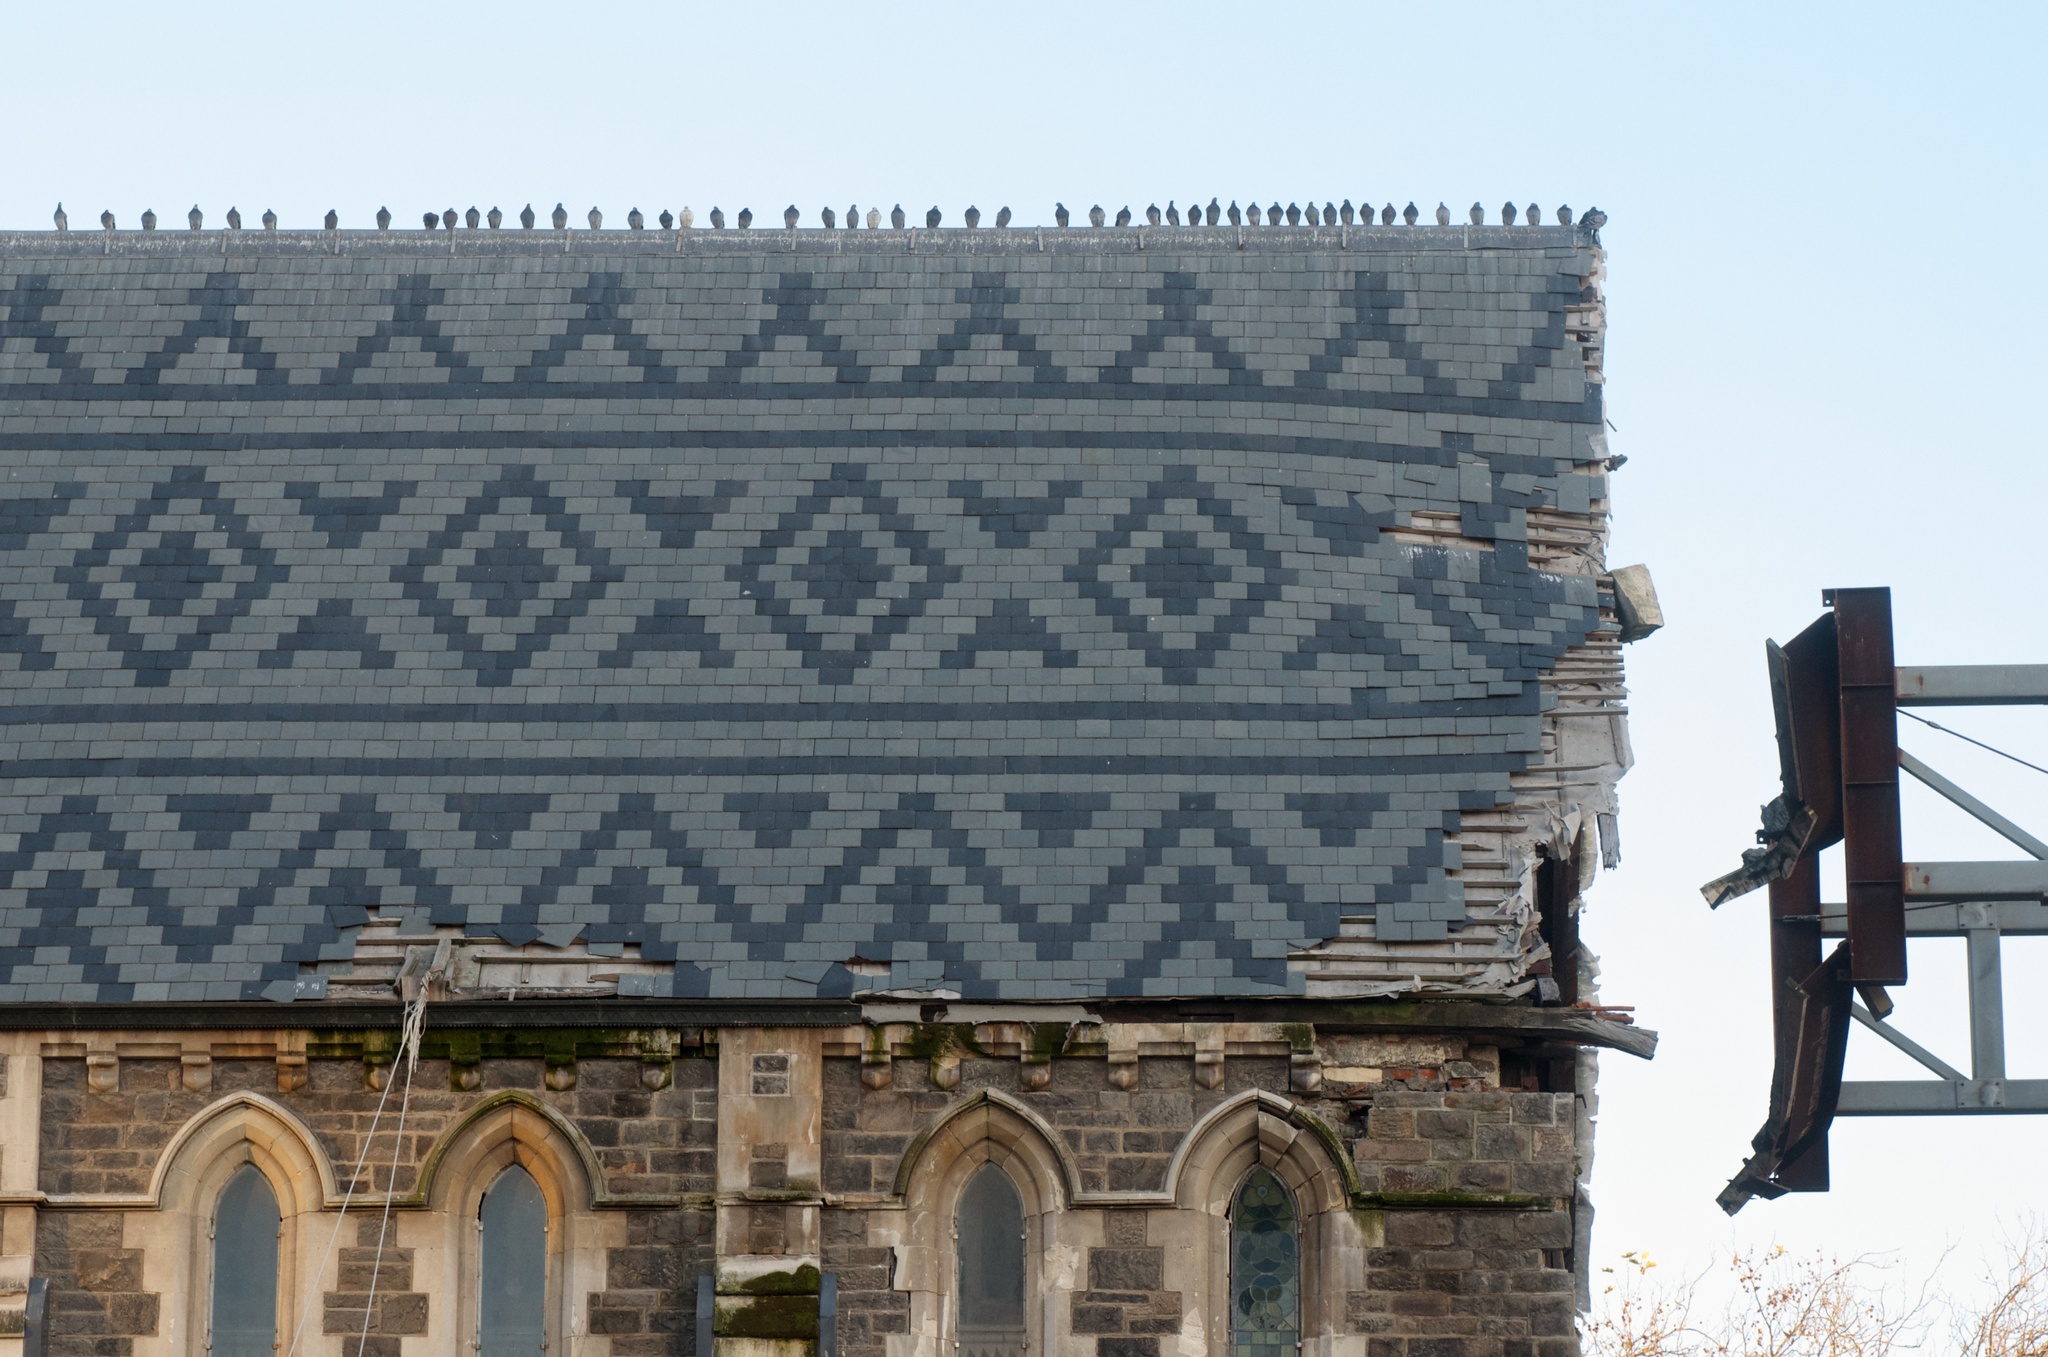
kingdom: Animalia
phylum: Chordata
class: Aves
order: Columbiformes
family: Columbidae
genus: Columba
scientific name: Columba livia
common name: Rock pigeon
